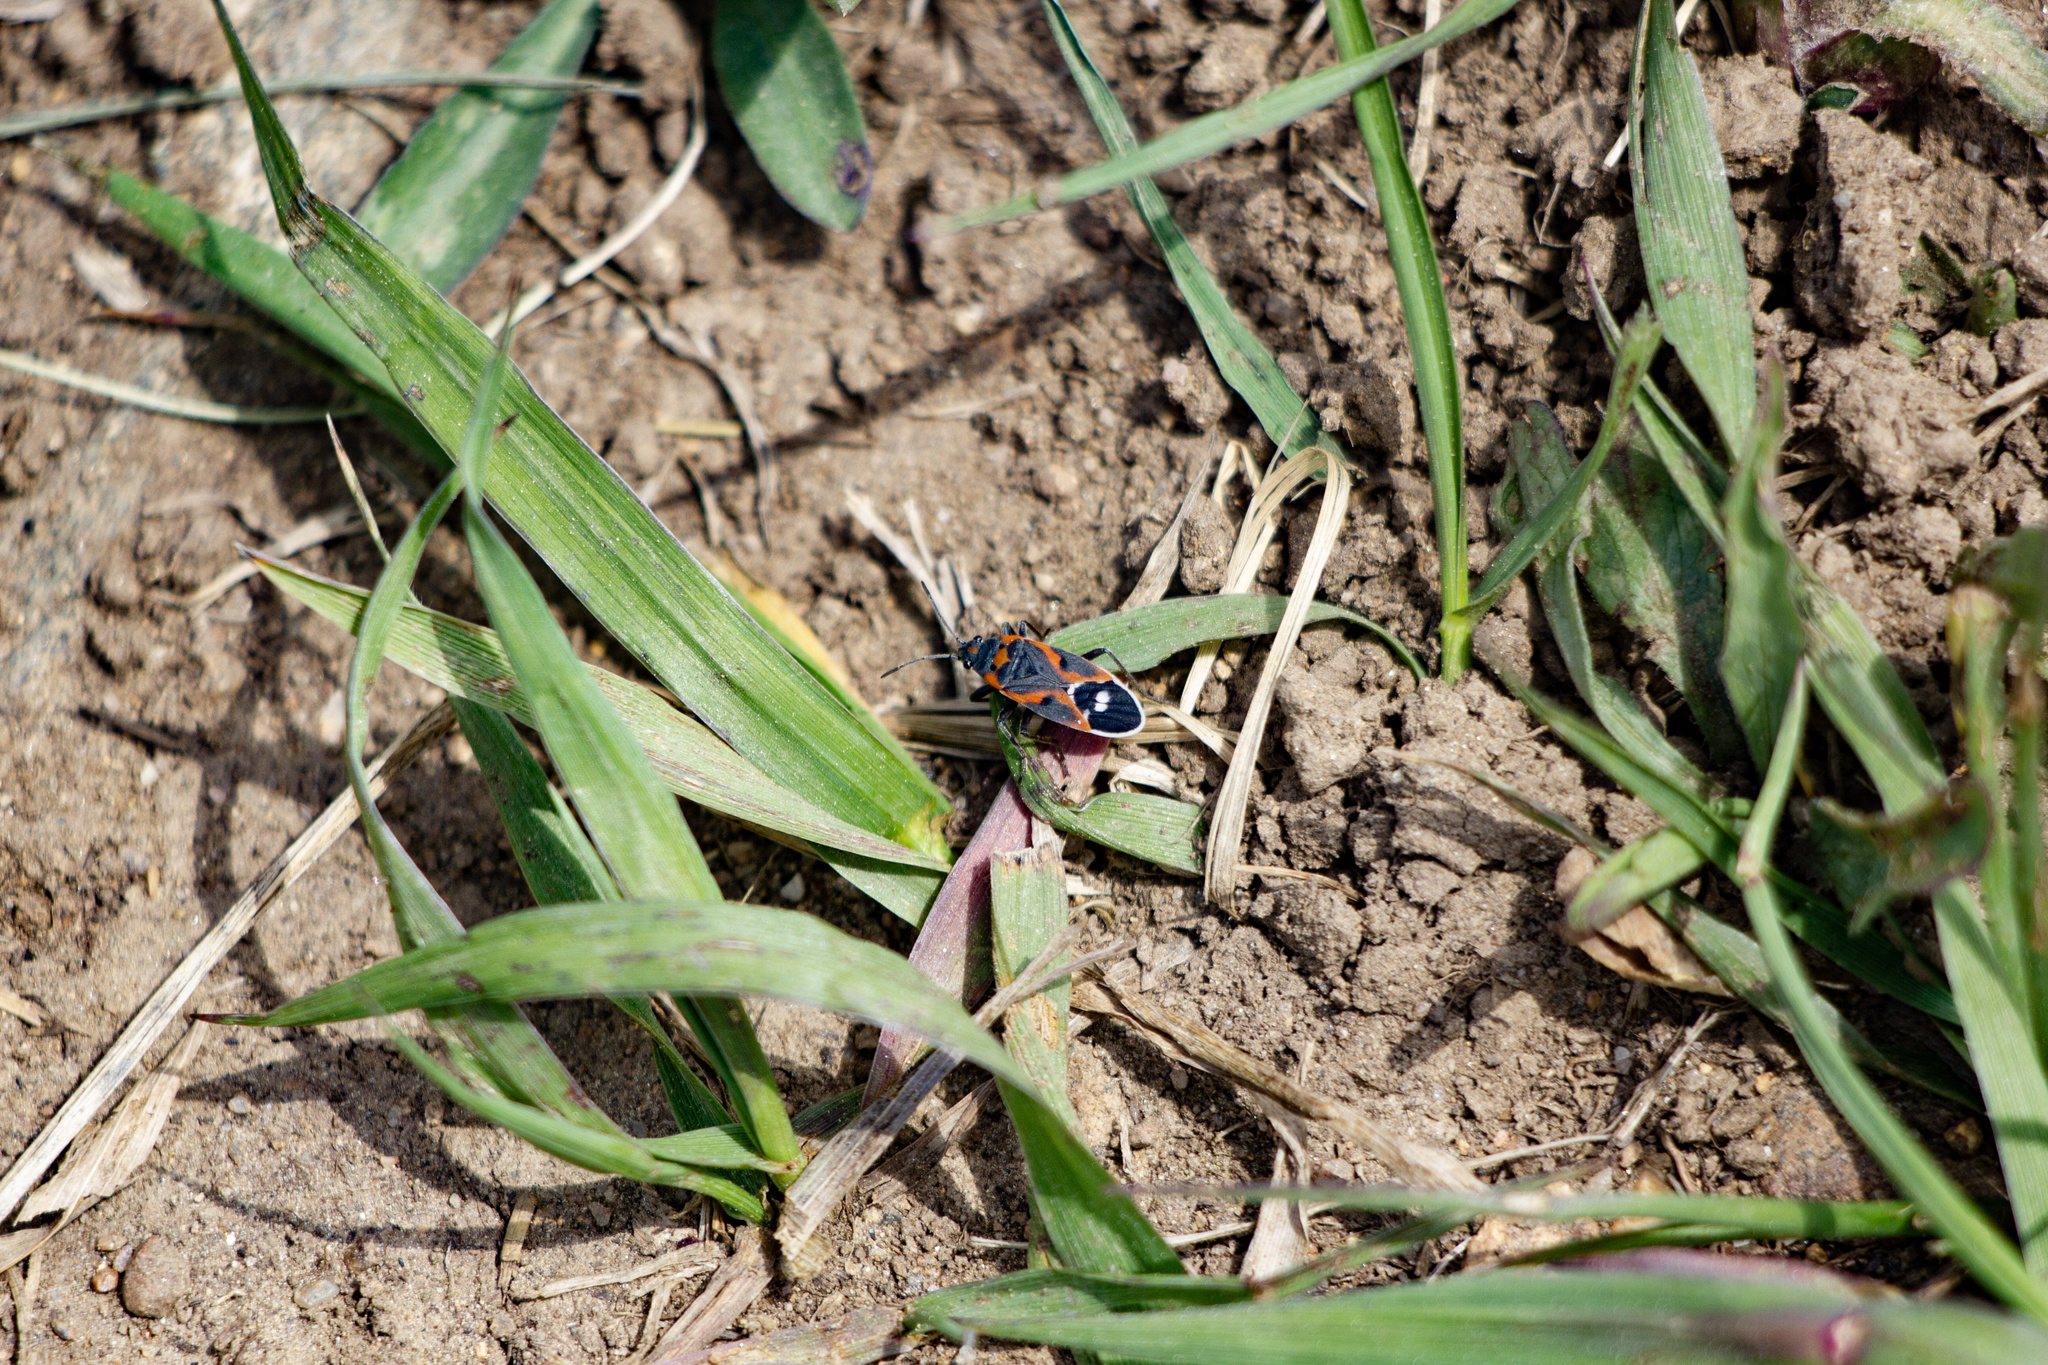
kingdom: Animalia
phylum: Arthropoda
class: Insecta
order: Hemiptera
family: Lygaeidae
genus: Lygaeus
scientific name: Lygaeus kalmii
